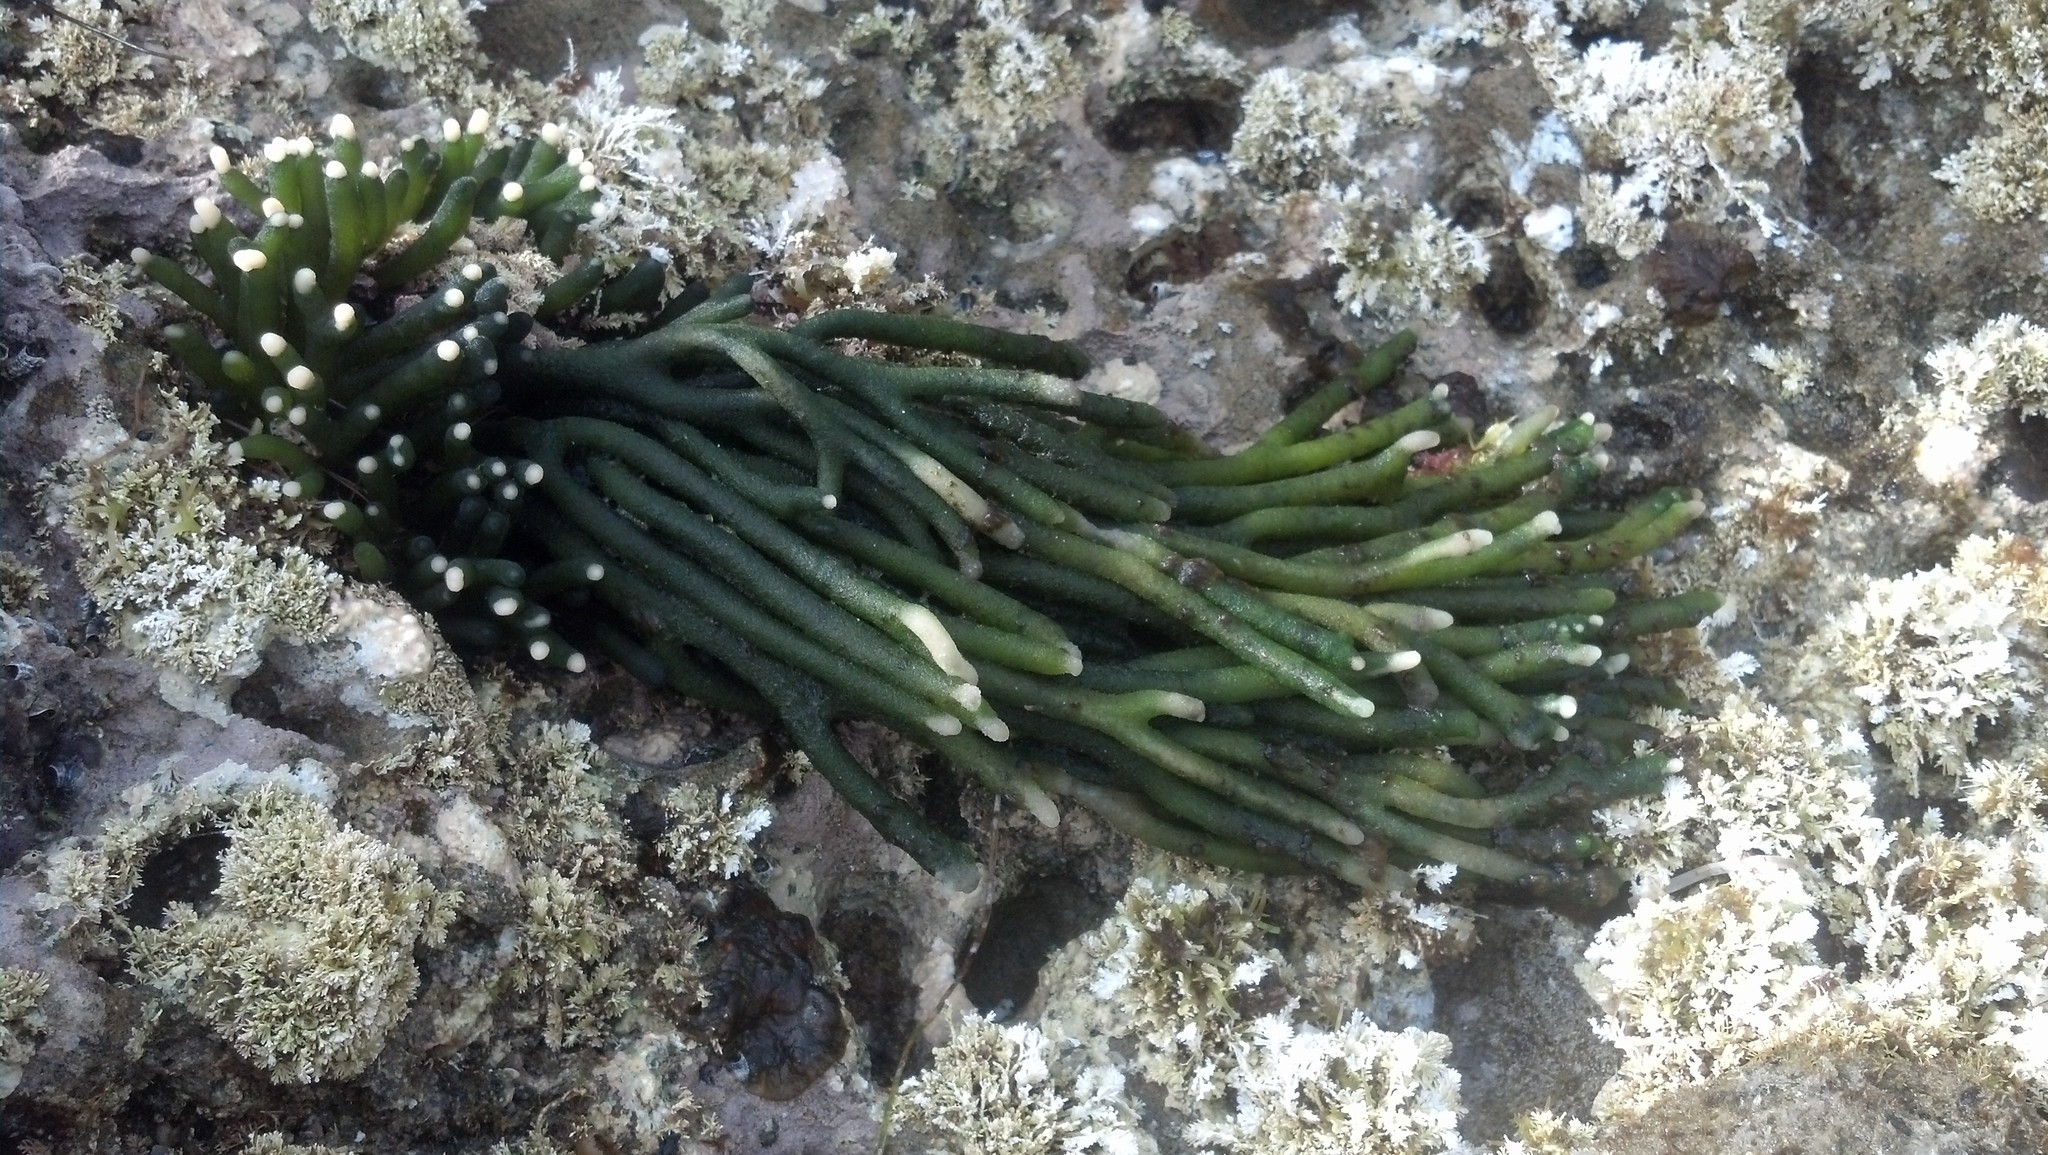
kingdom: Plantae
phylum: Chlorophyta
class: Ulvophyceae
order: Bryopsidales
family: Codiaceae
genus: Codium
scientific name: Codium fragile
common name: Dead man's fingers
